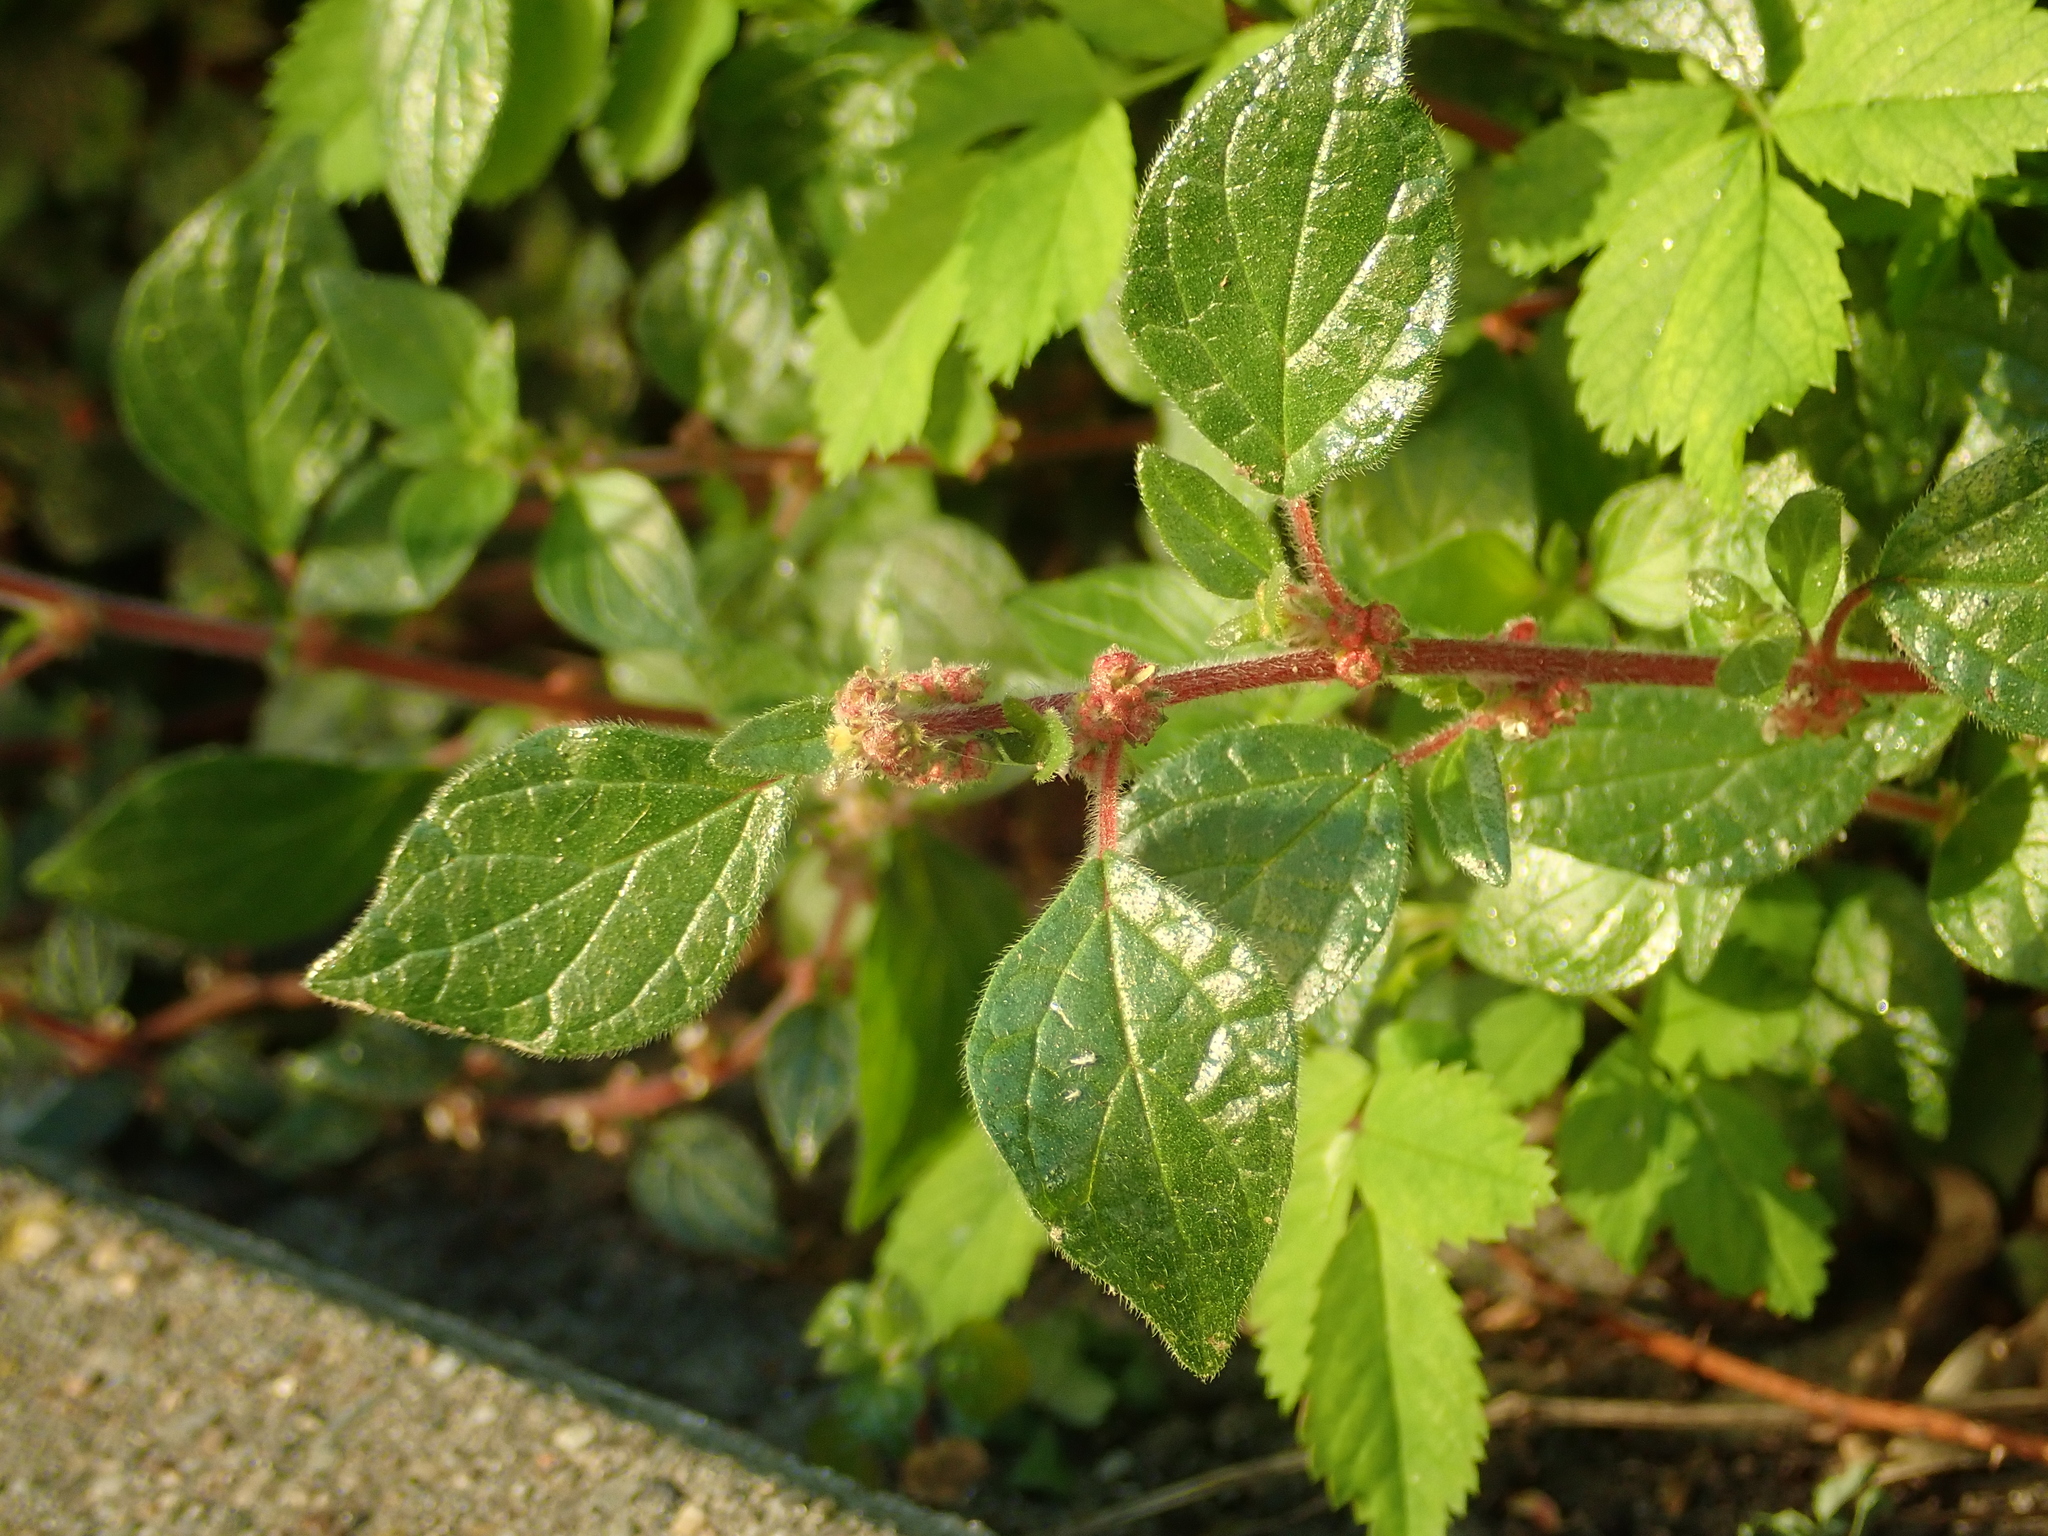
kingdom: Plantae
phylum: Tracheophyta
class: Magnoliopsida
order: Rosales
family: Urticaceae
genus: Parietaria
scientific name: Parietaria judaica
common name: Pellitory-of-the-wall
